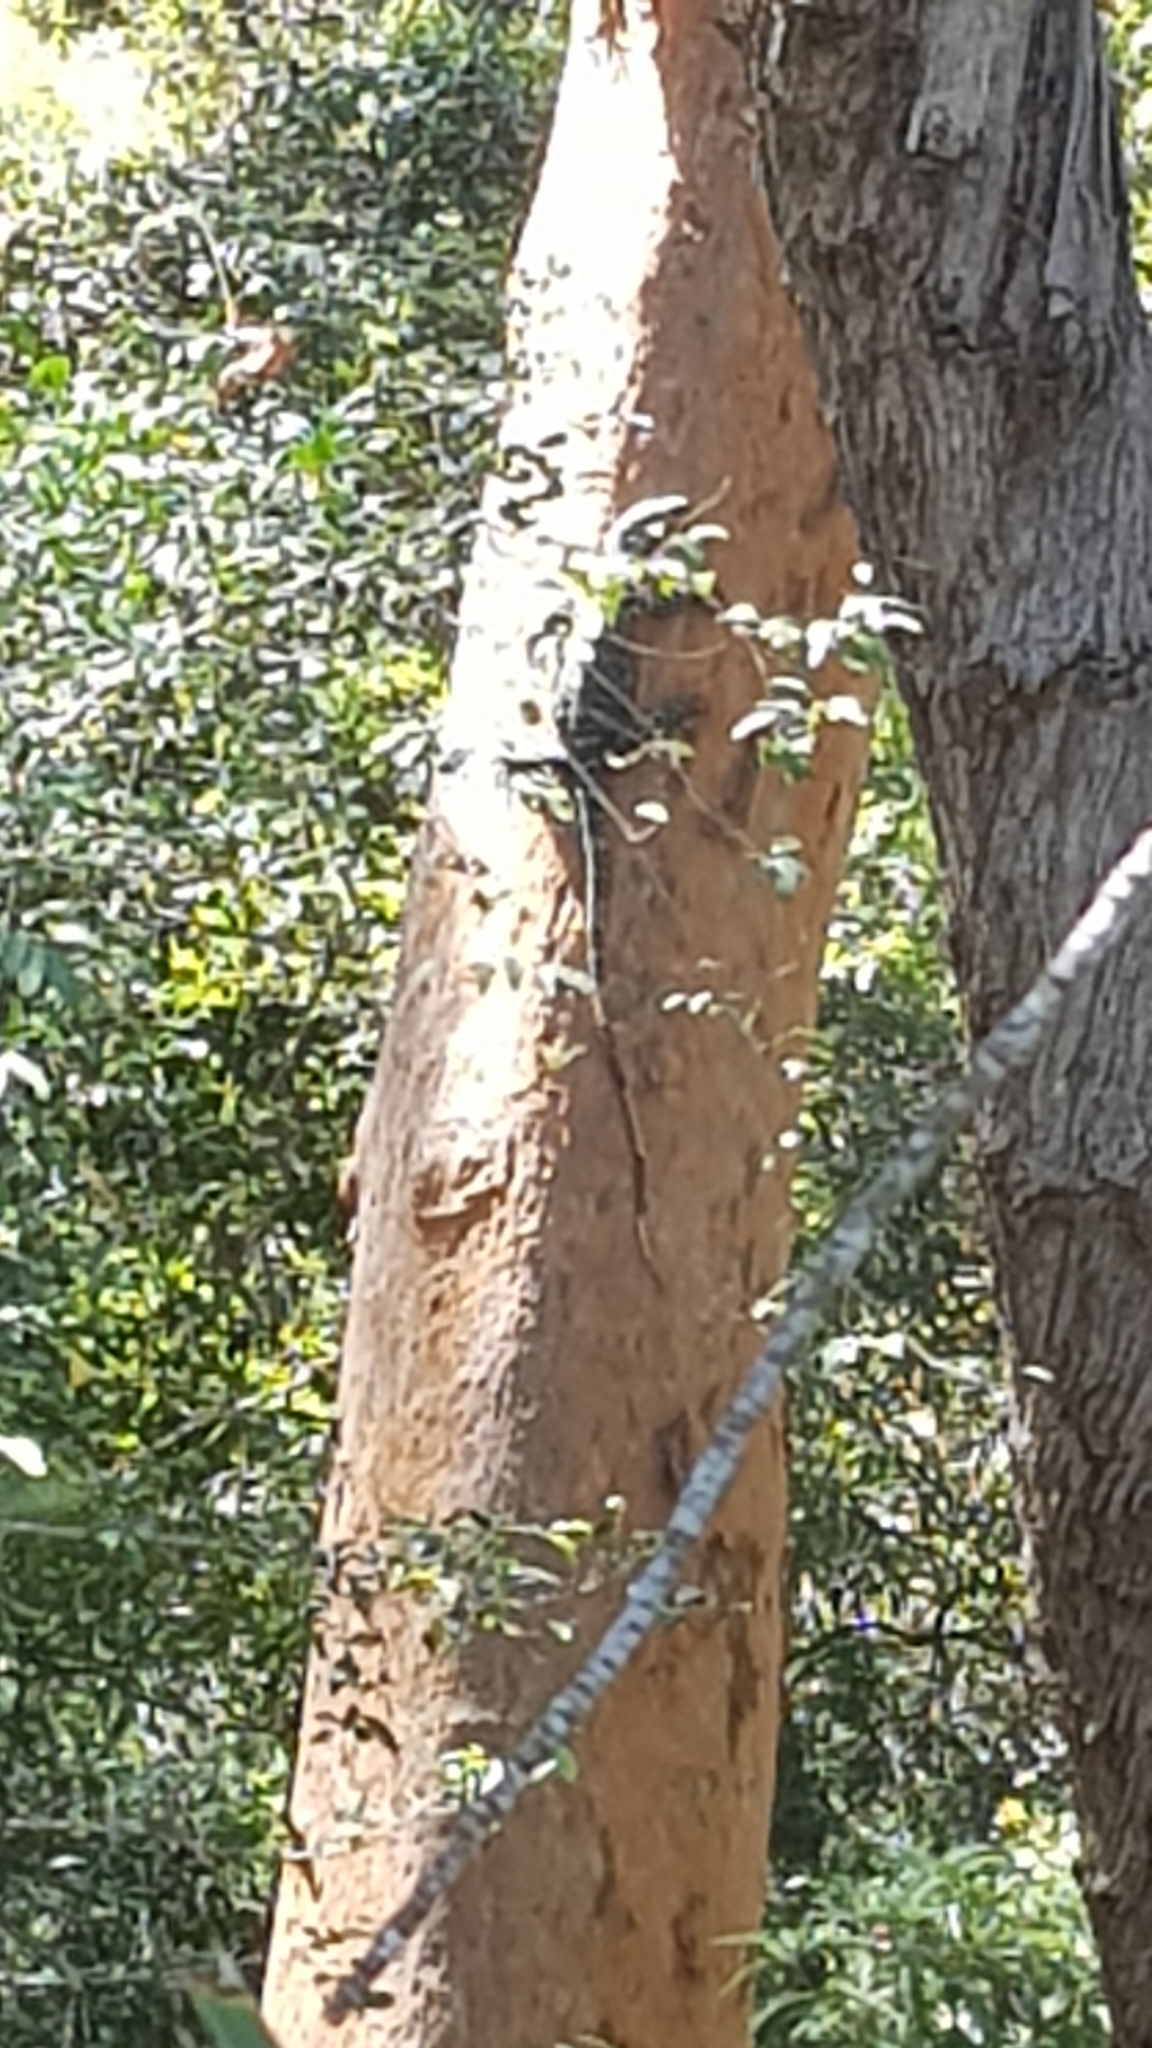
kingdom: Animalia
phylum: Chordata
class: Squamata
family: Varanidae
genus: Varanus
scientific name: Varanus varius
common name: Lace monitor
